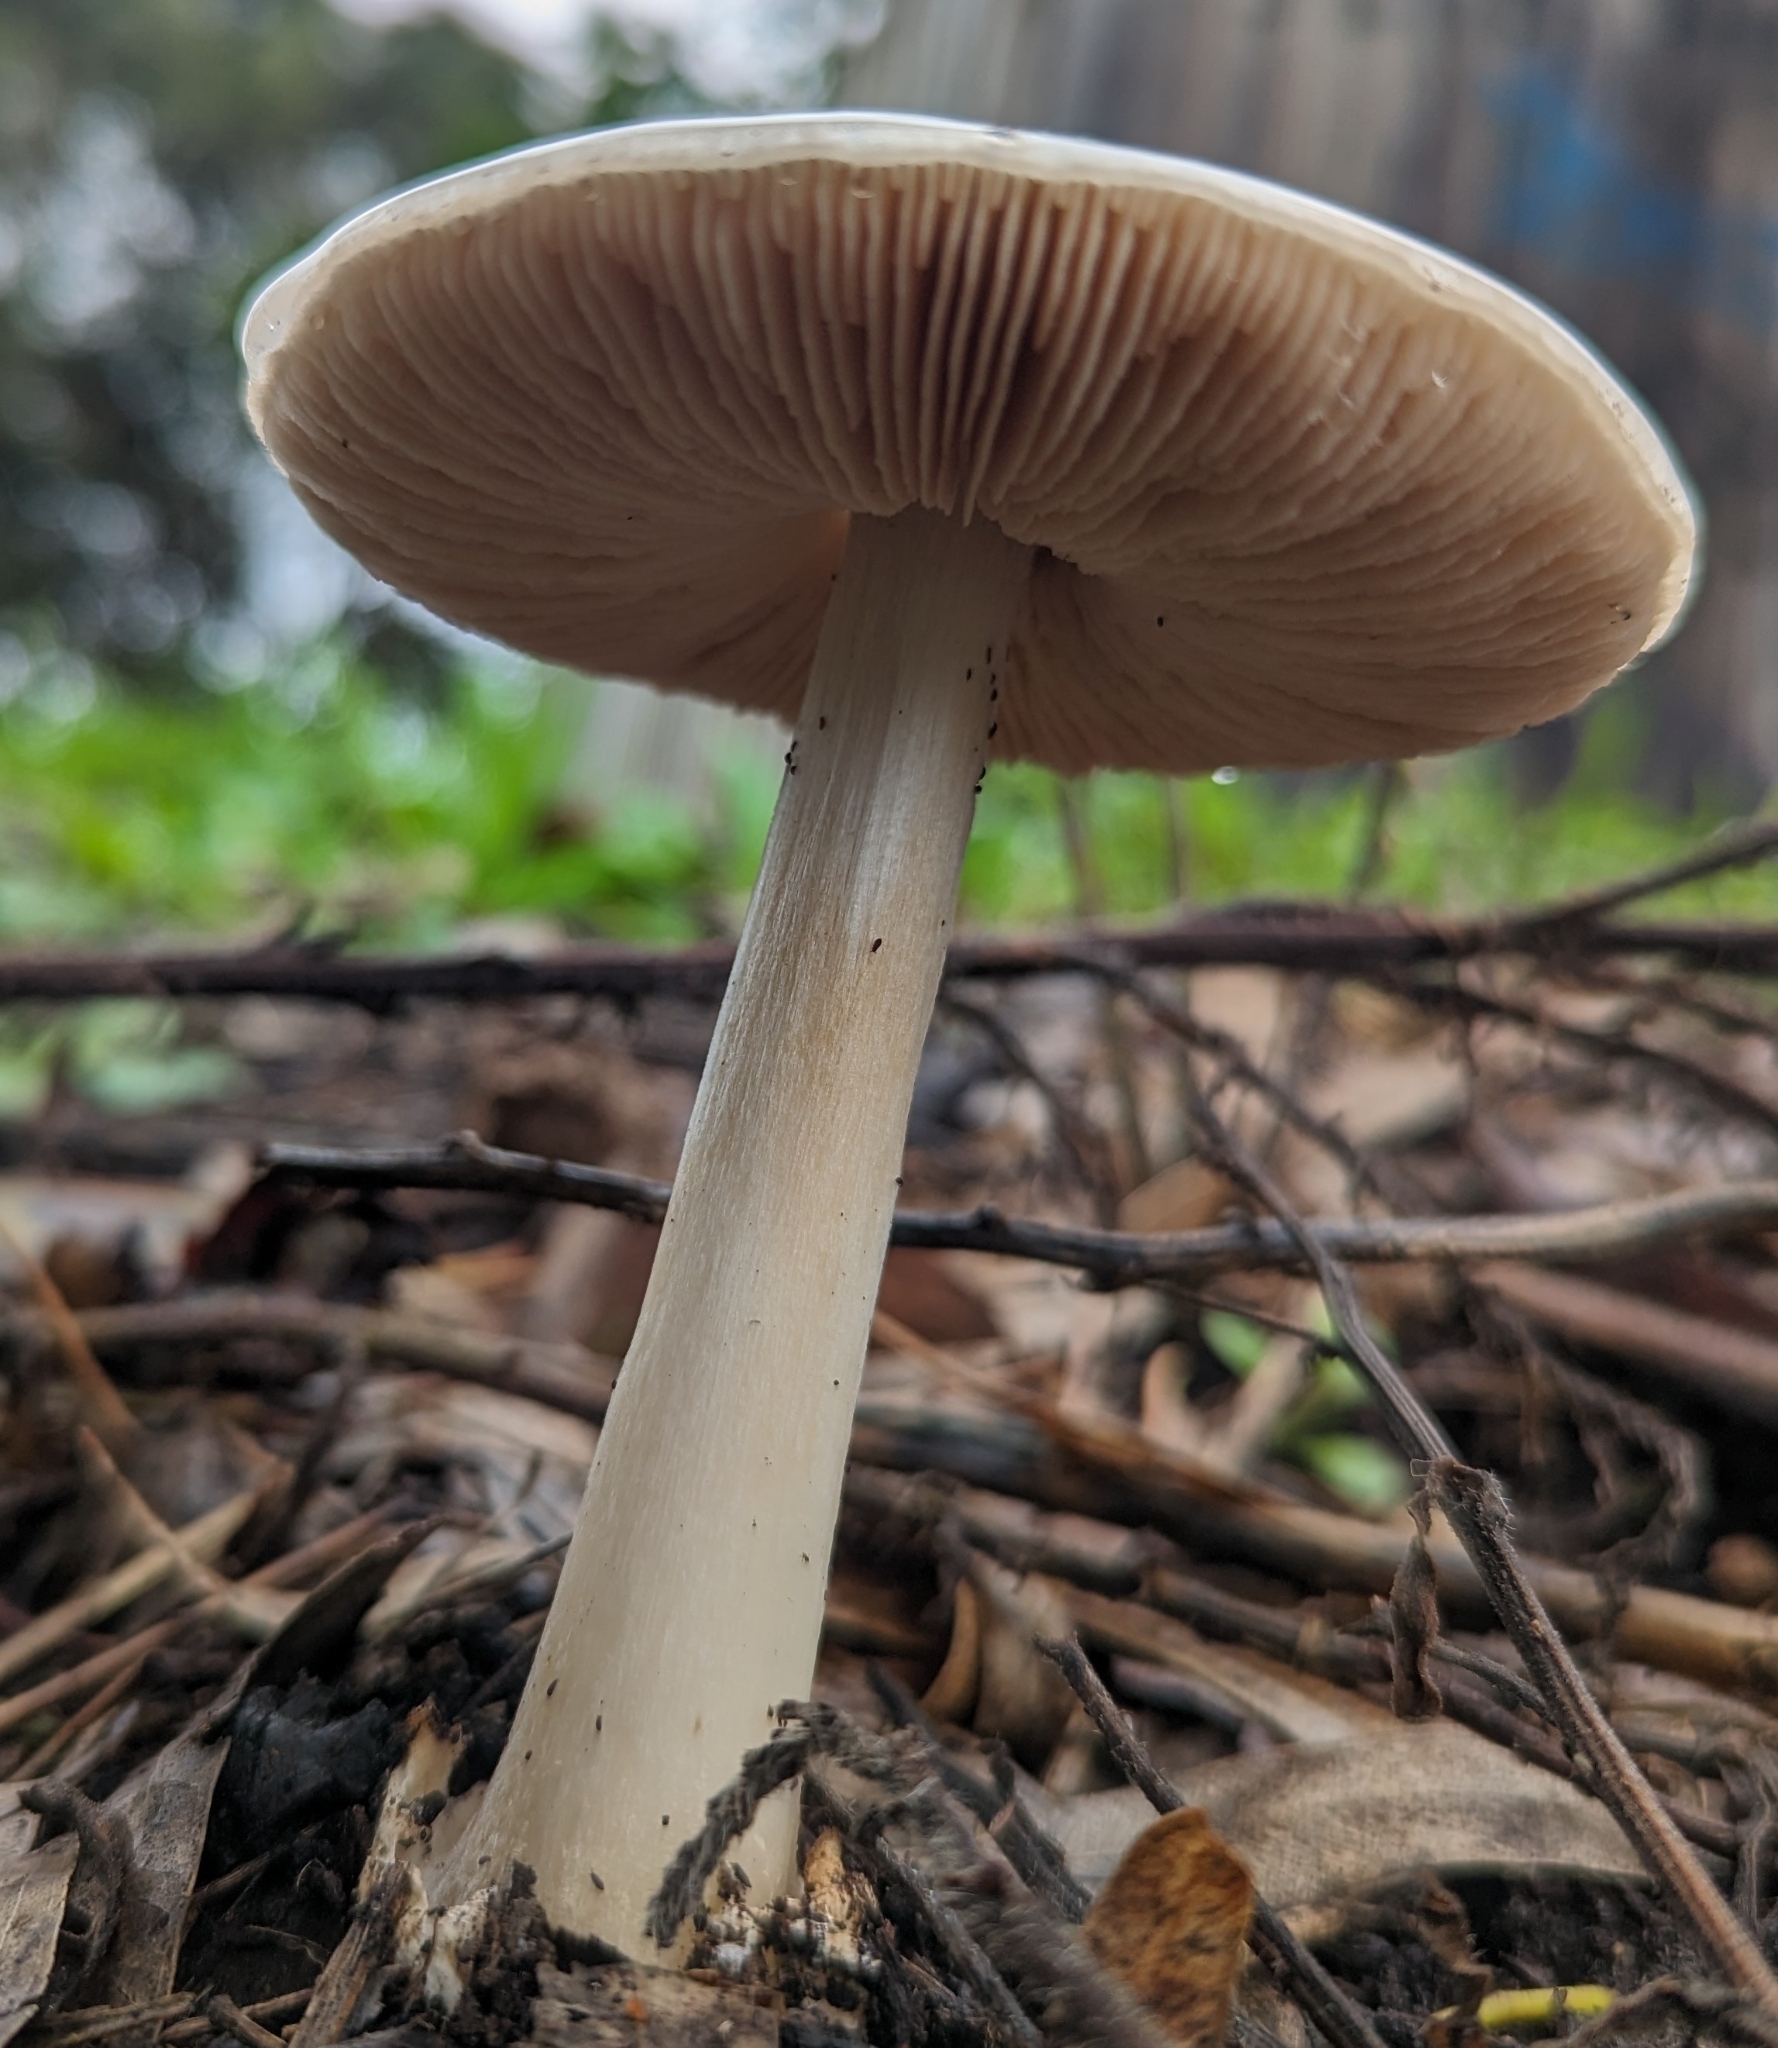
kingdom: Fungi
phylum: Basidiomycota
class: Agaricomycetes
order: Agaricales
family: Pluteaceae
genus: Volvopluteus
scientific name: Volvopluteus gloiocephalus
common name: Stubble rosegill
